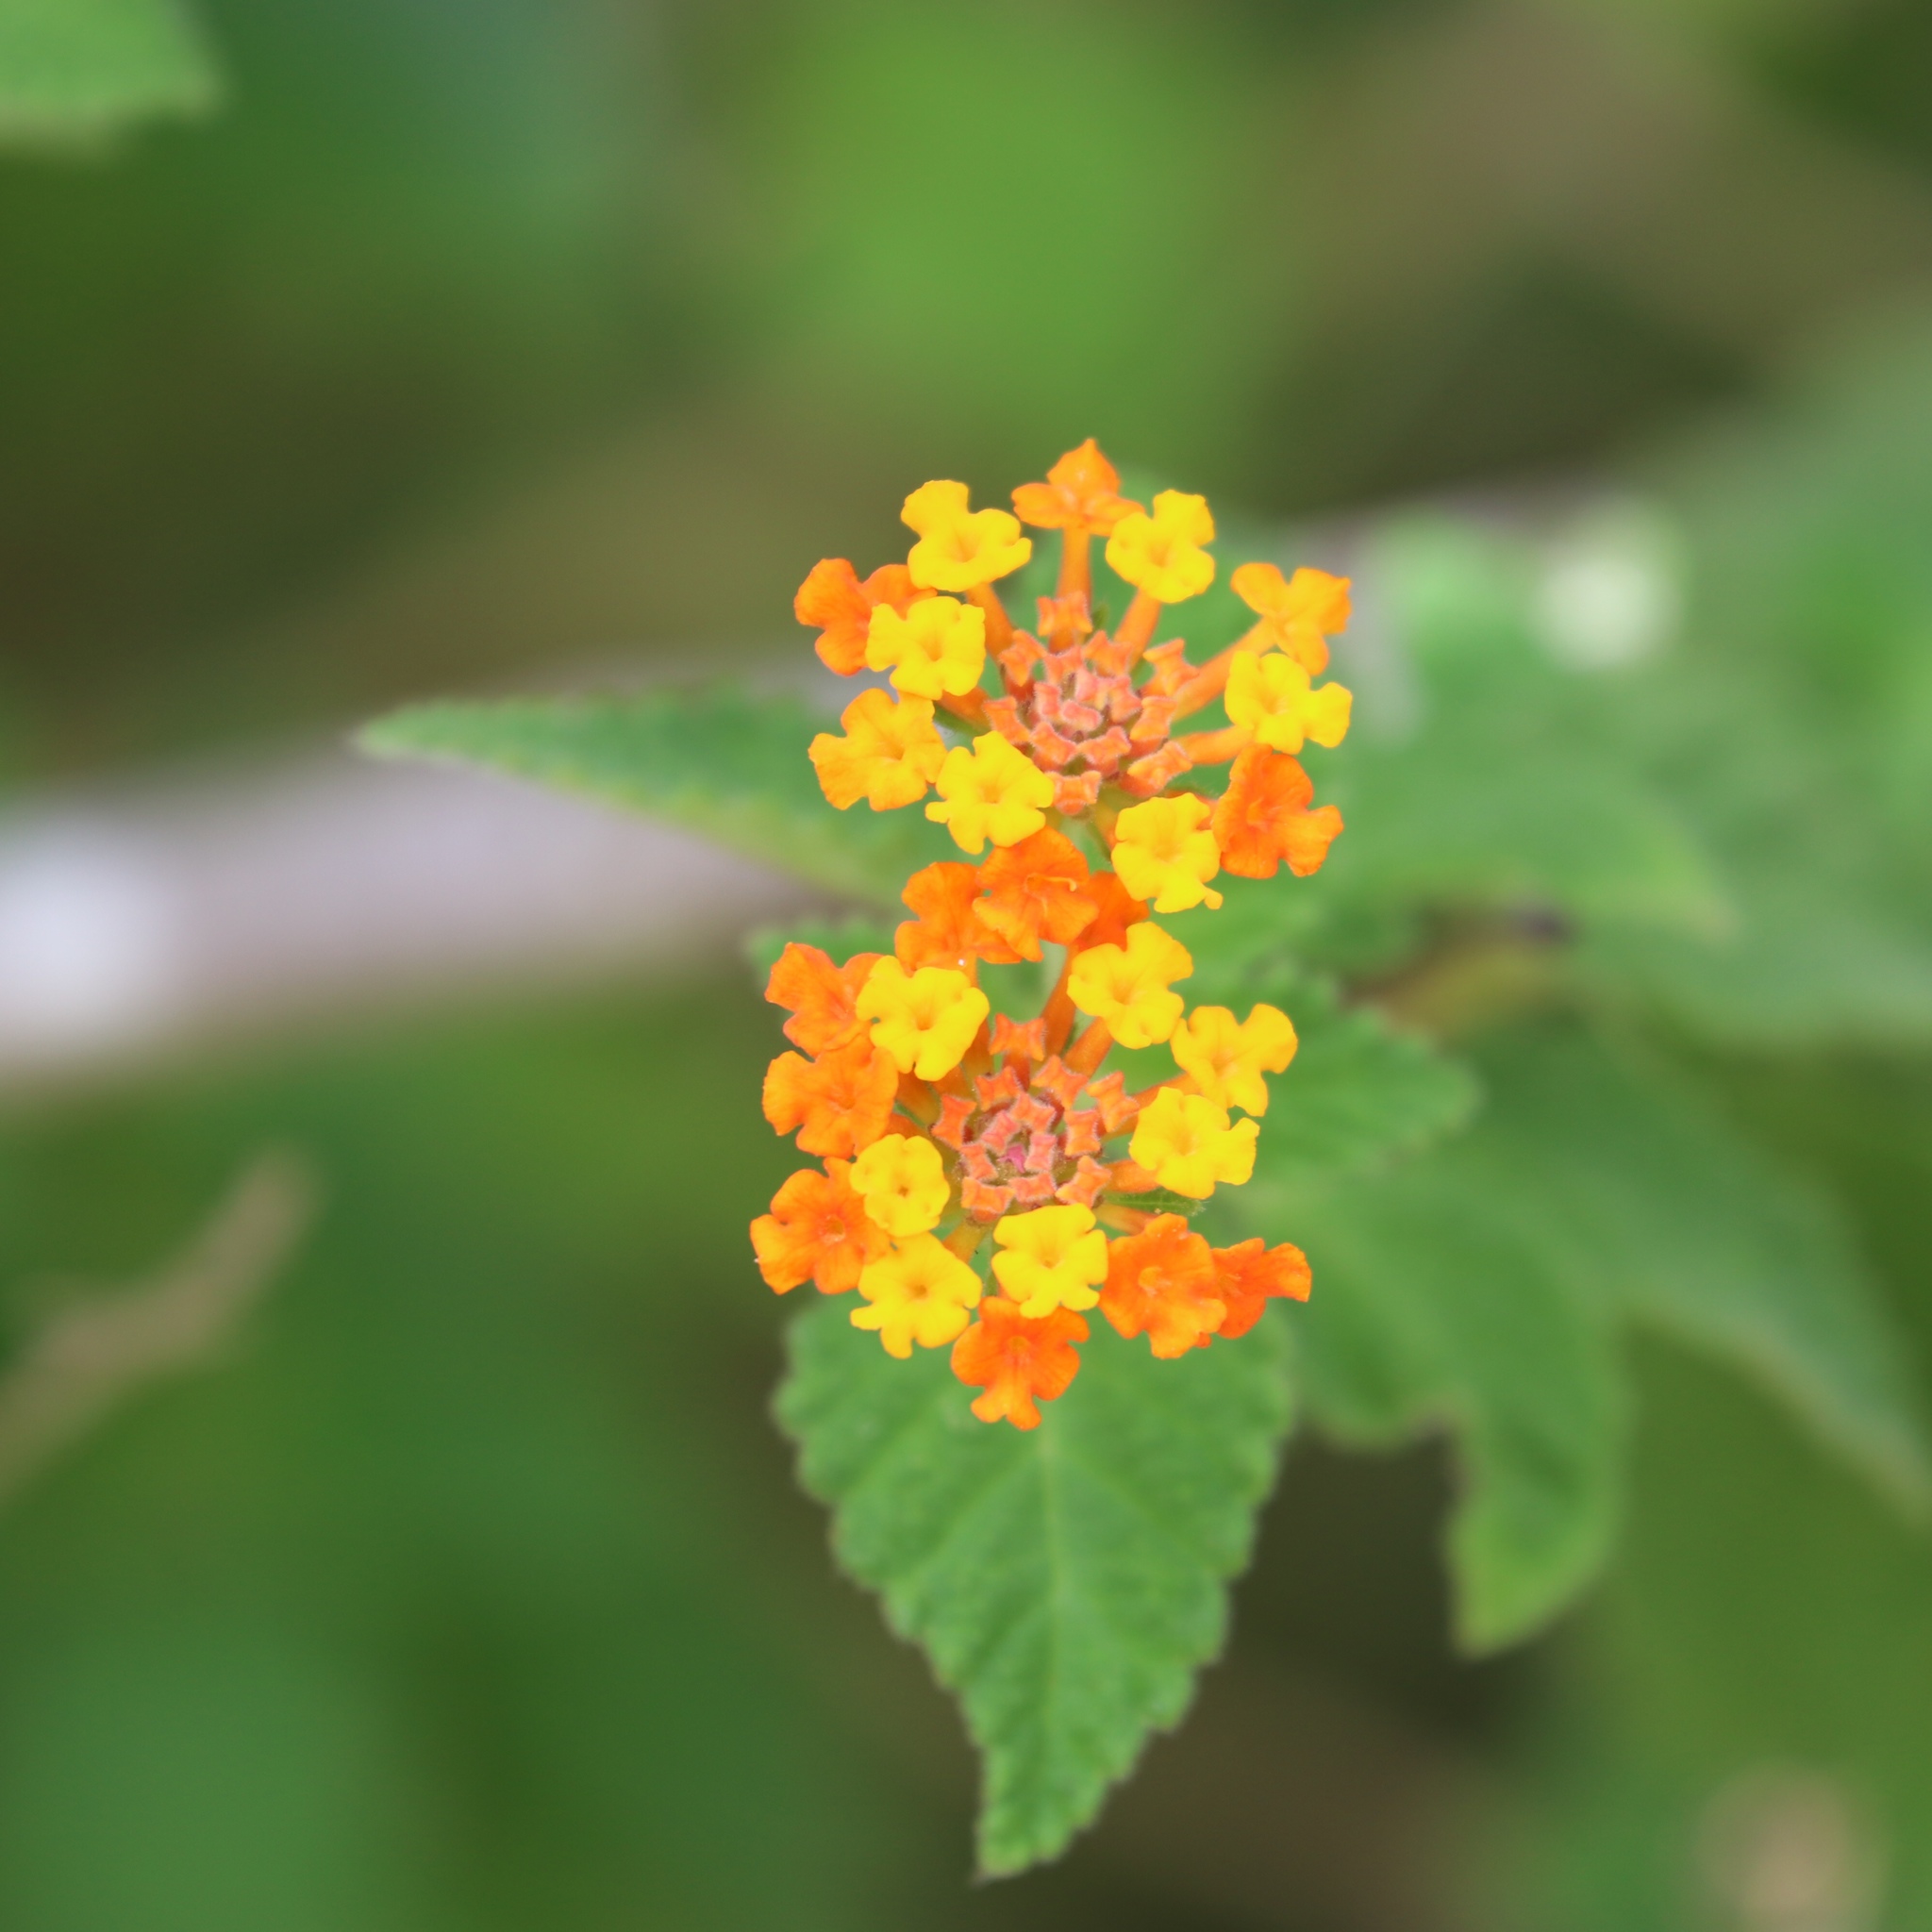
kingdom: Plantae
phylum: Tracheophyta
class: Magnoliopsida
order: Lamiales
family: Verbenaceae
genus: Lantana
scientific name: Lantana horrida
